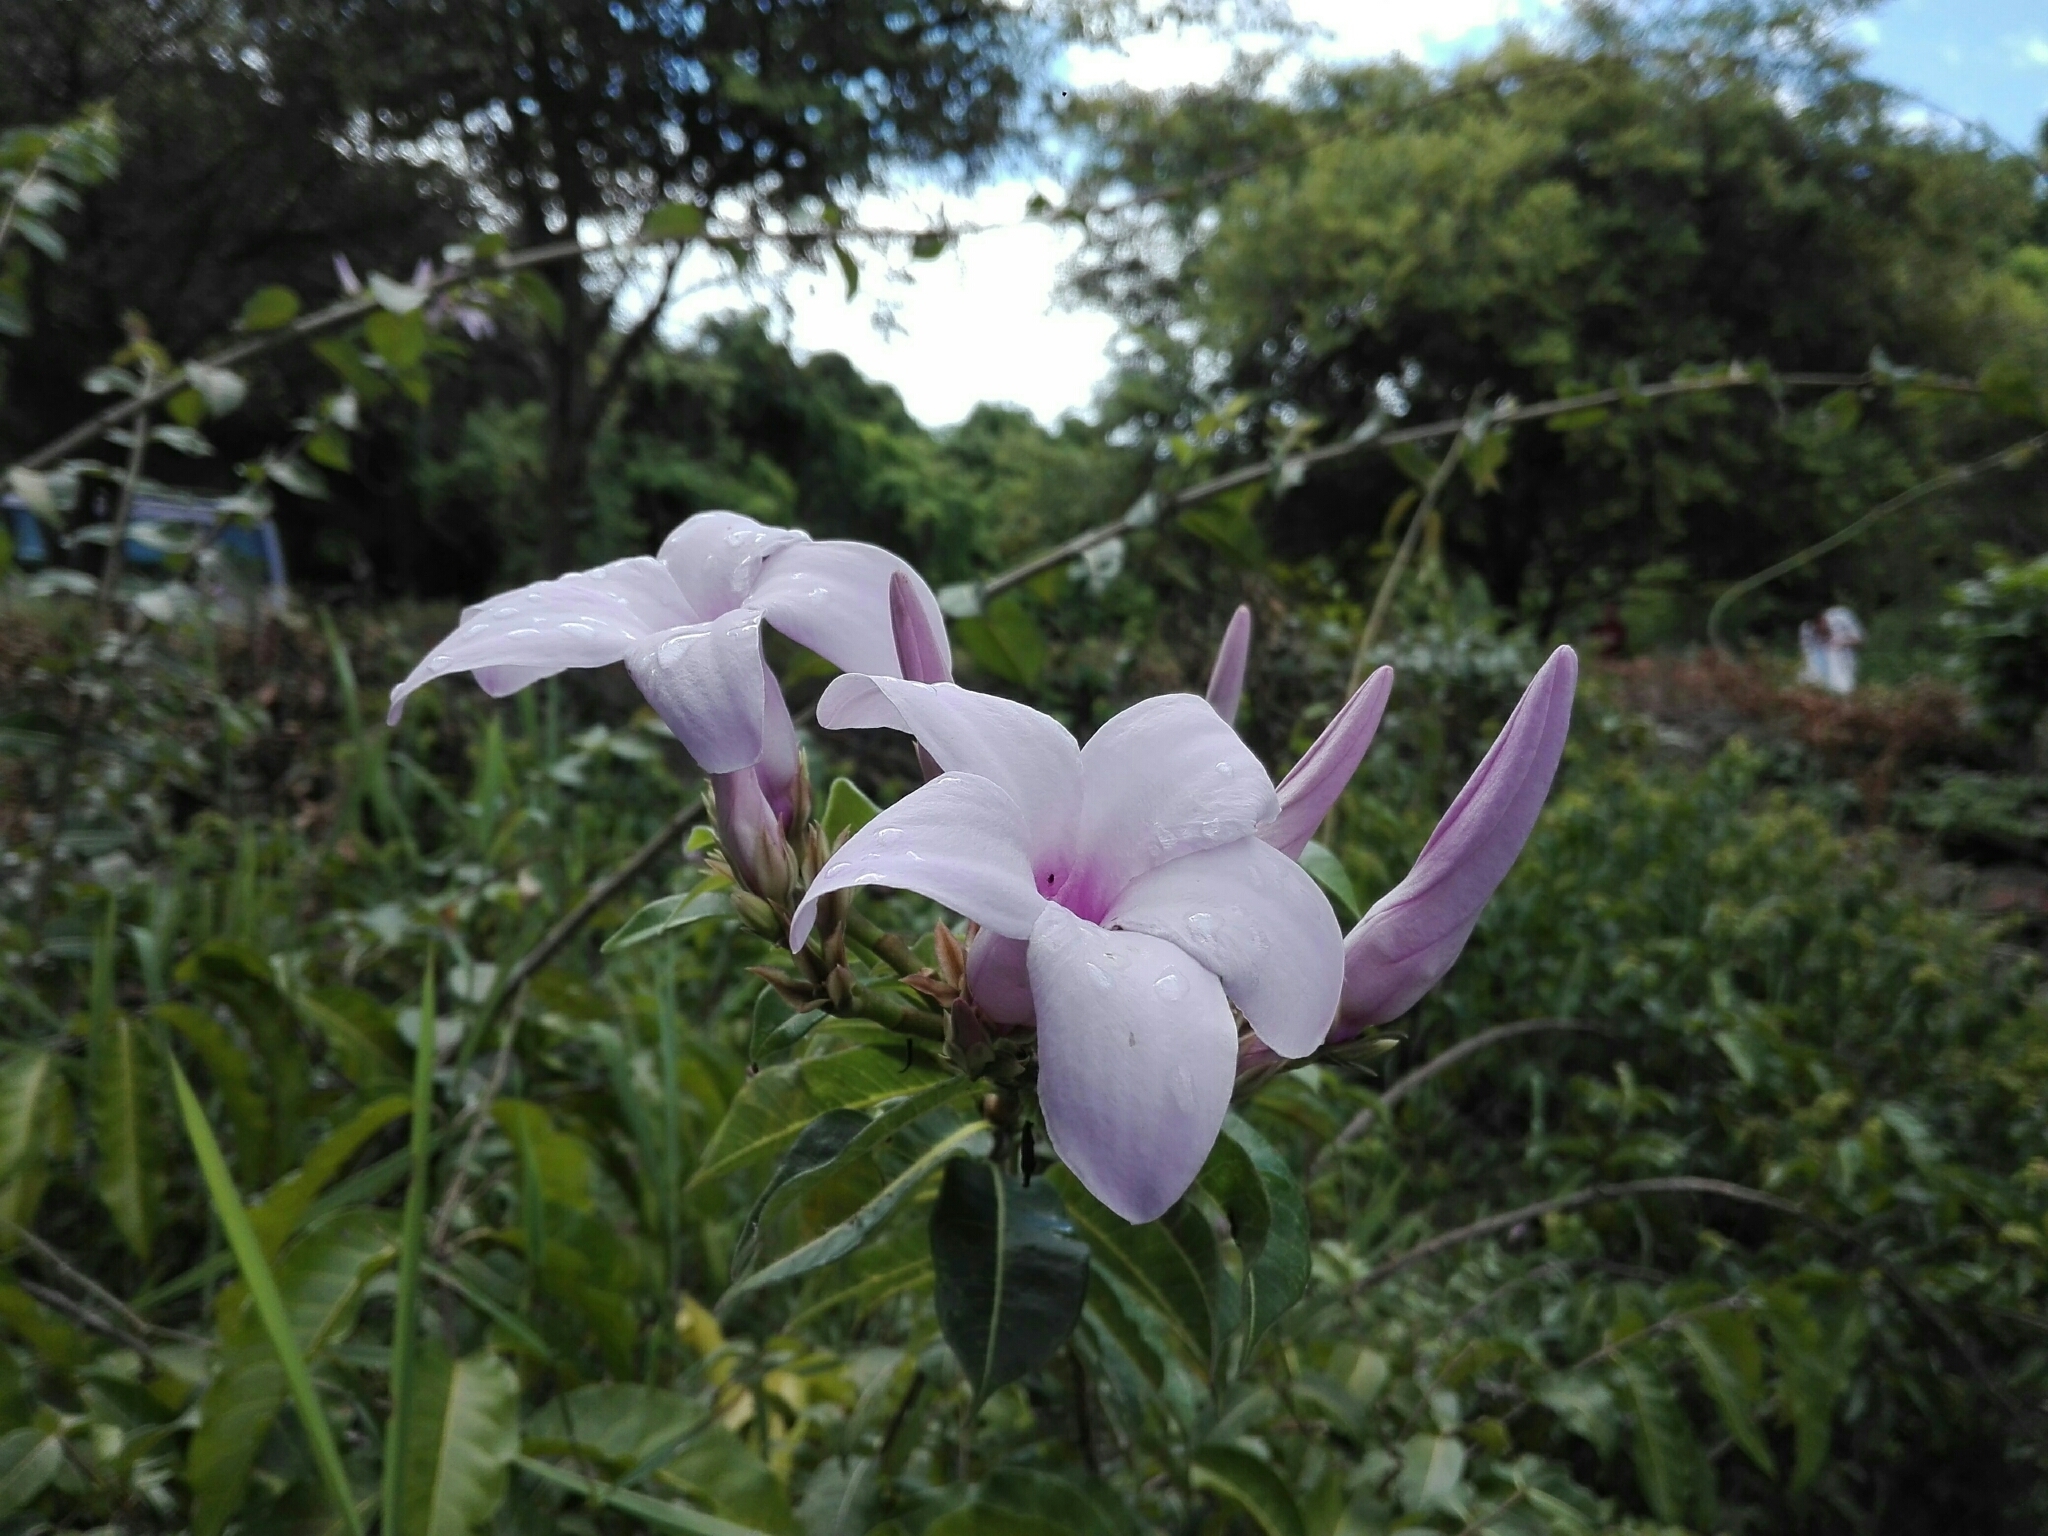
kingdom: Plantae
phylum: Tracheophyta
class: Magnoliopsida
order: Gentianales
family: Apocynaceae
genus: Cryptostegia
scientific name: Cryptostegia madagascariensis
